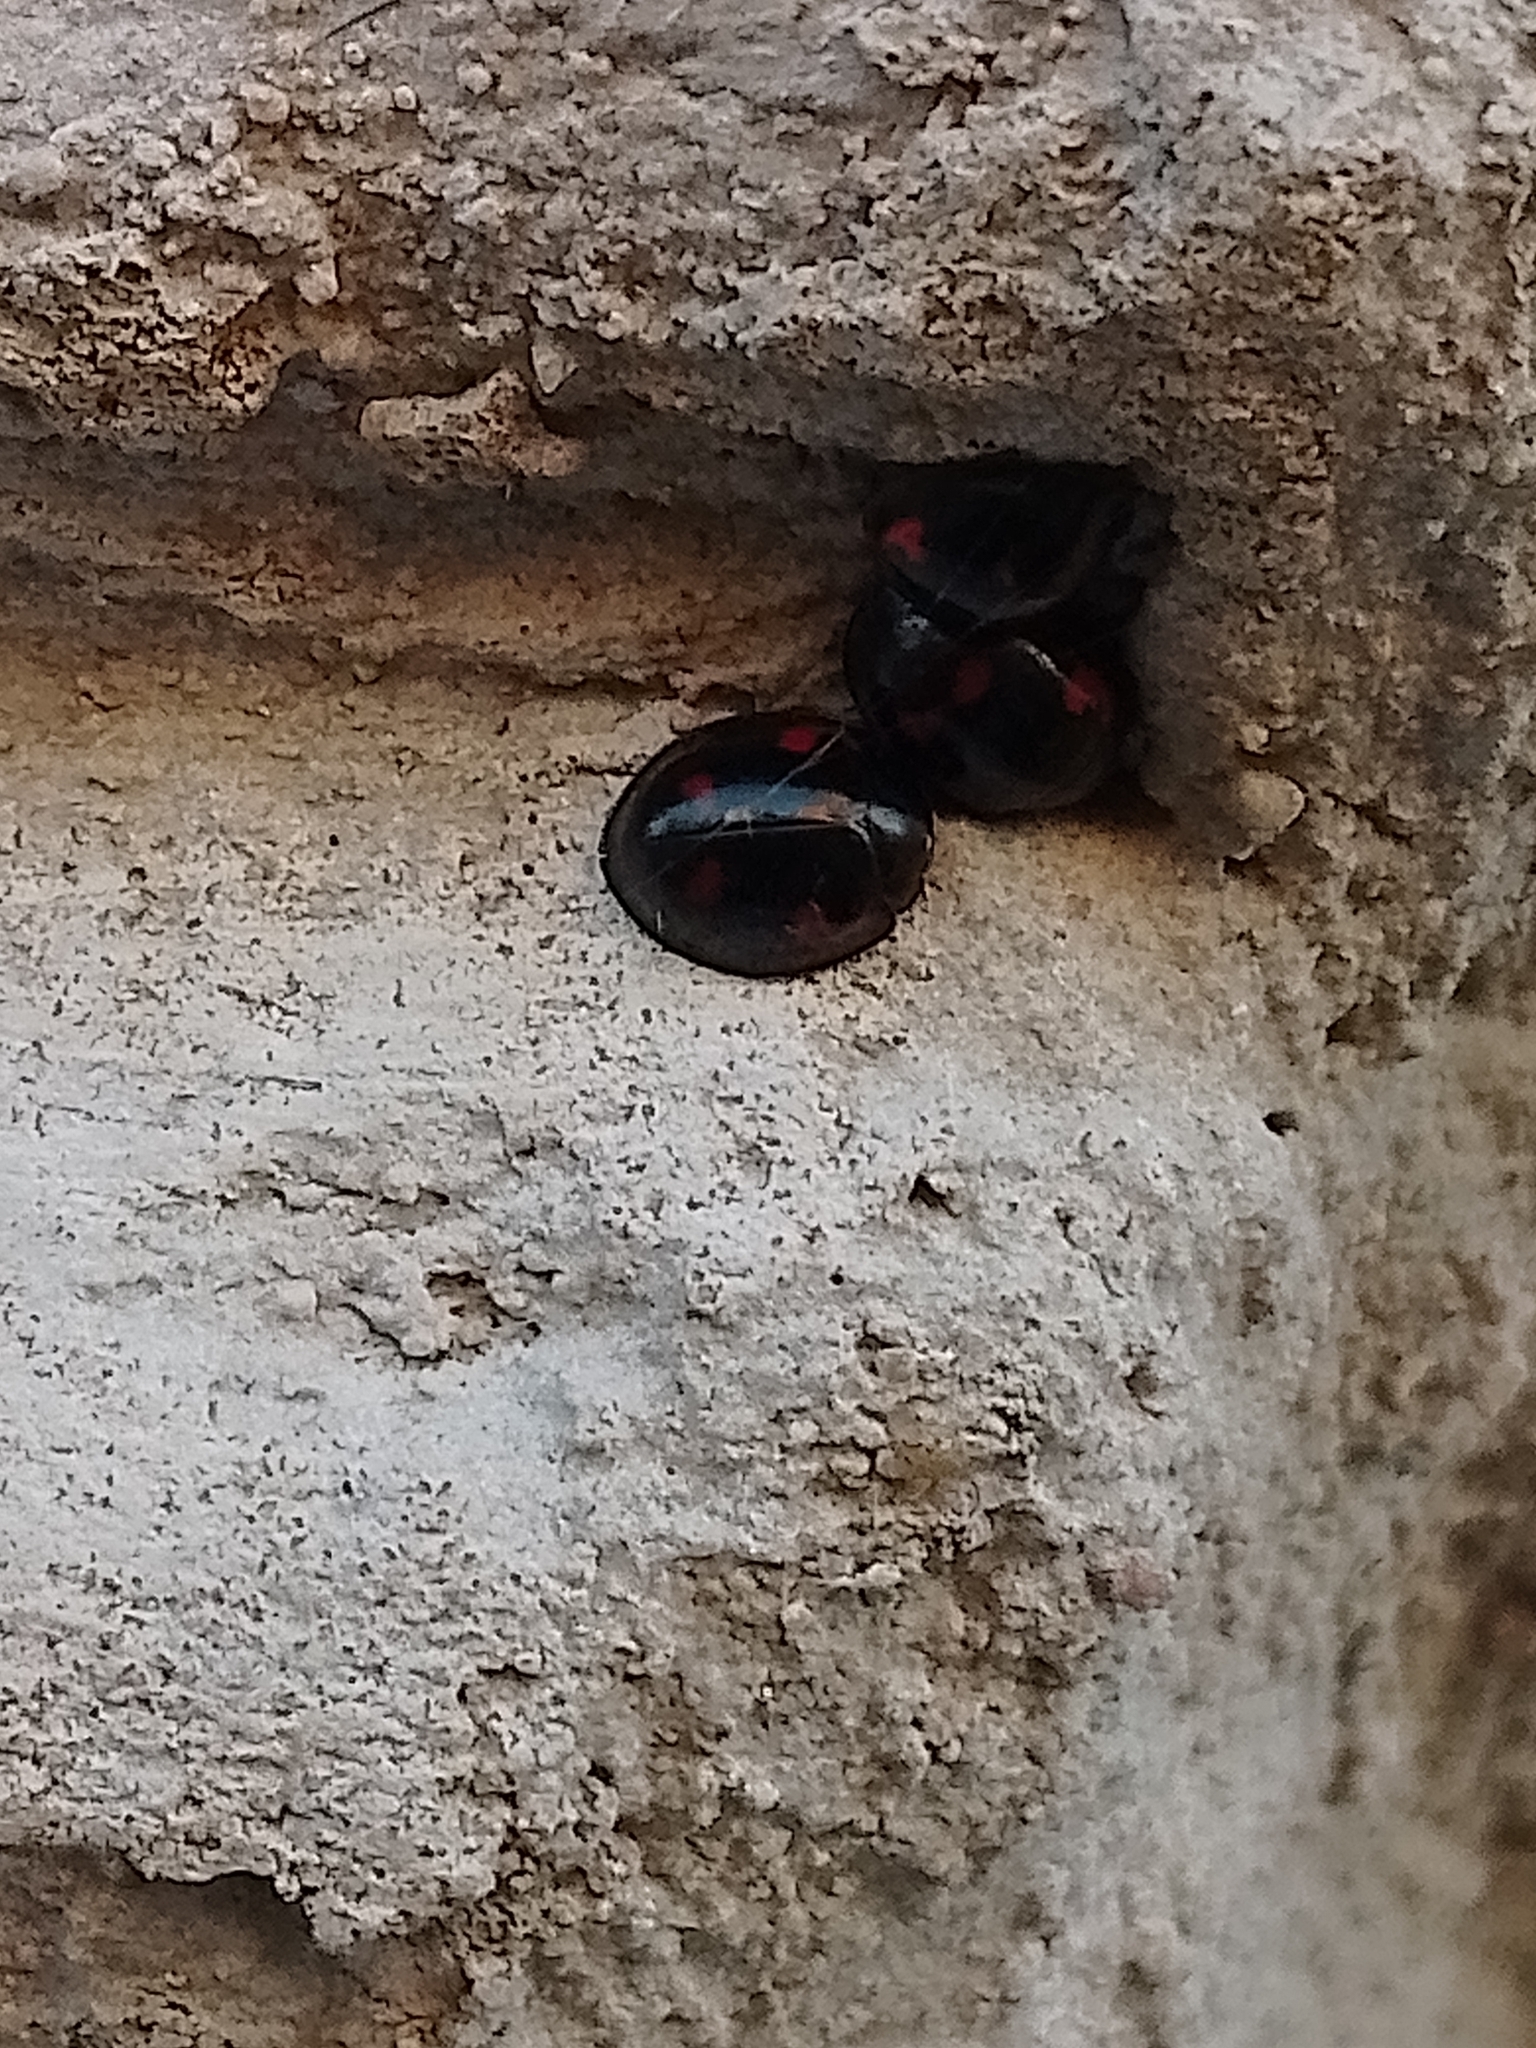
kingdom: Animalia
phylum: Arthropoda
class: Insecta
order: Coleoptera
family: Coccinellidae
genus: Brumus
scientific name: Brumus quadripustulatus
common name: Ladybird beetle
